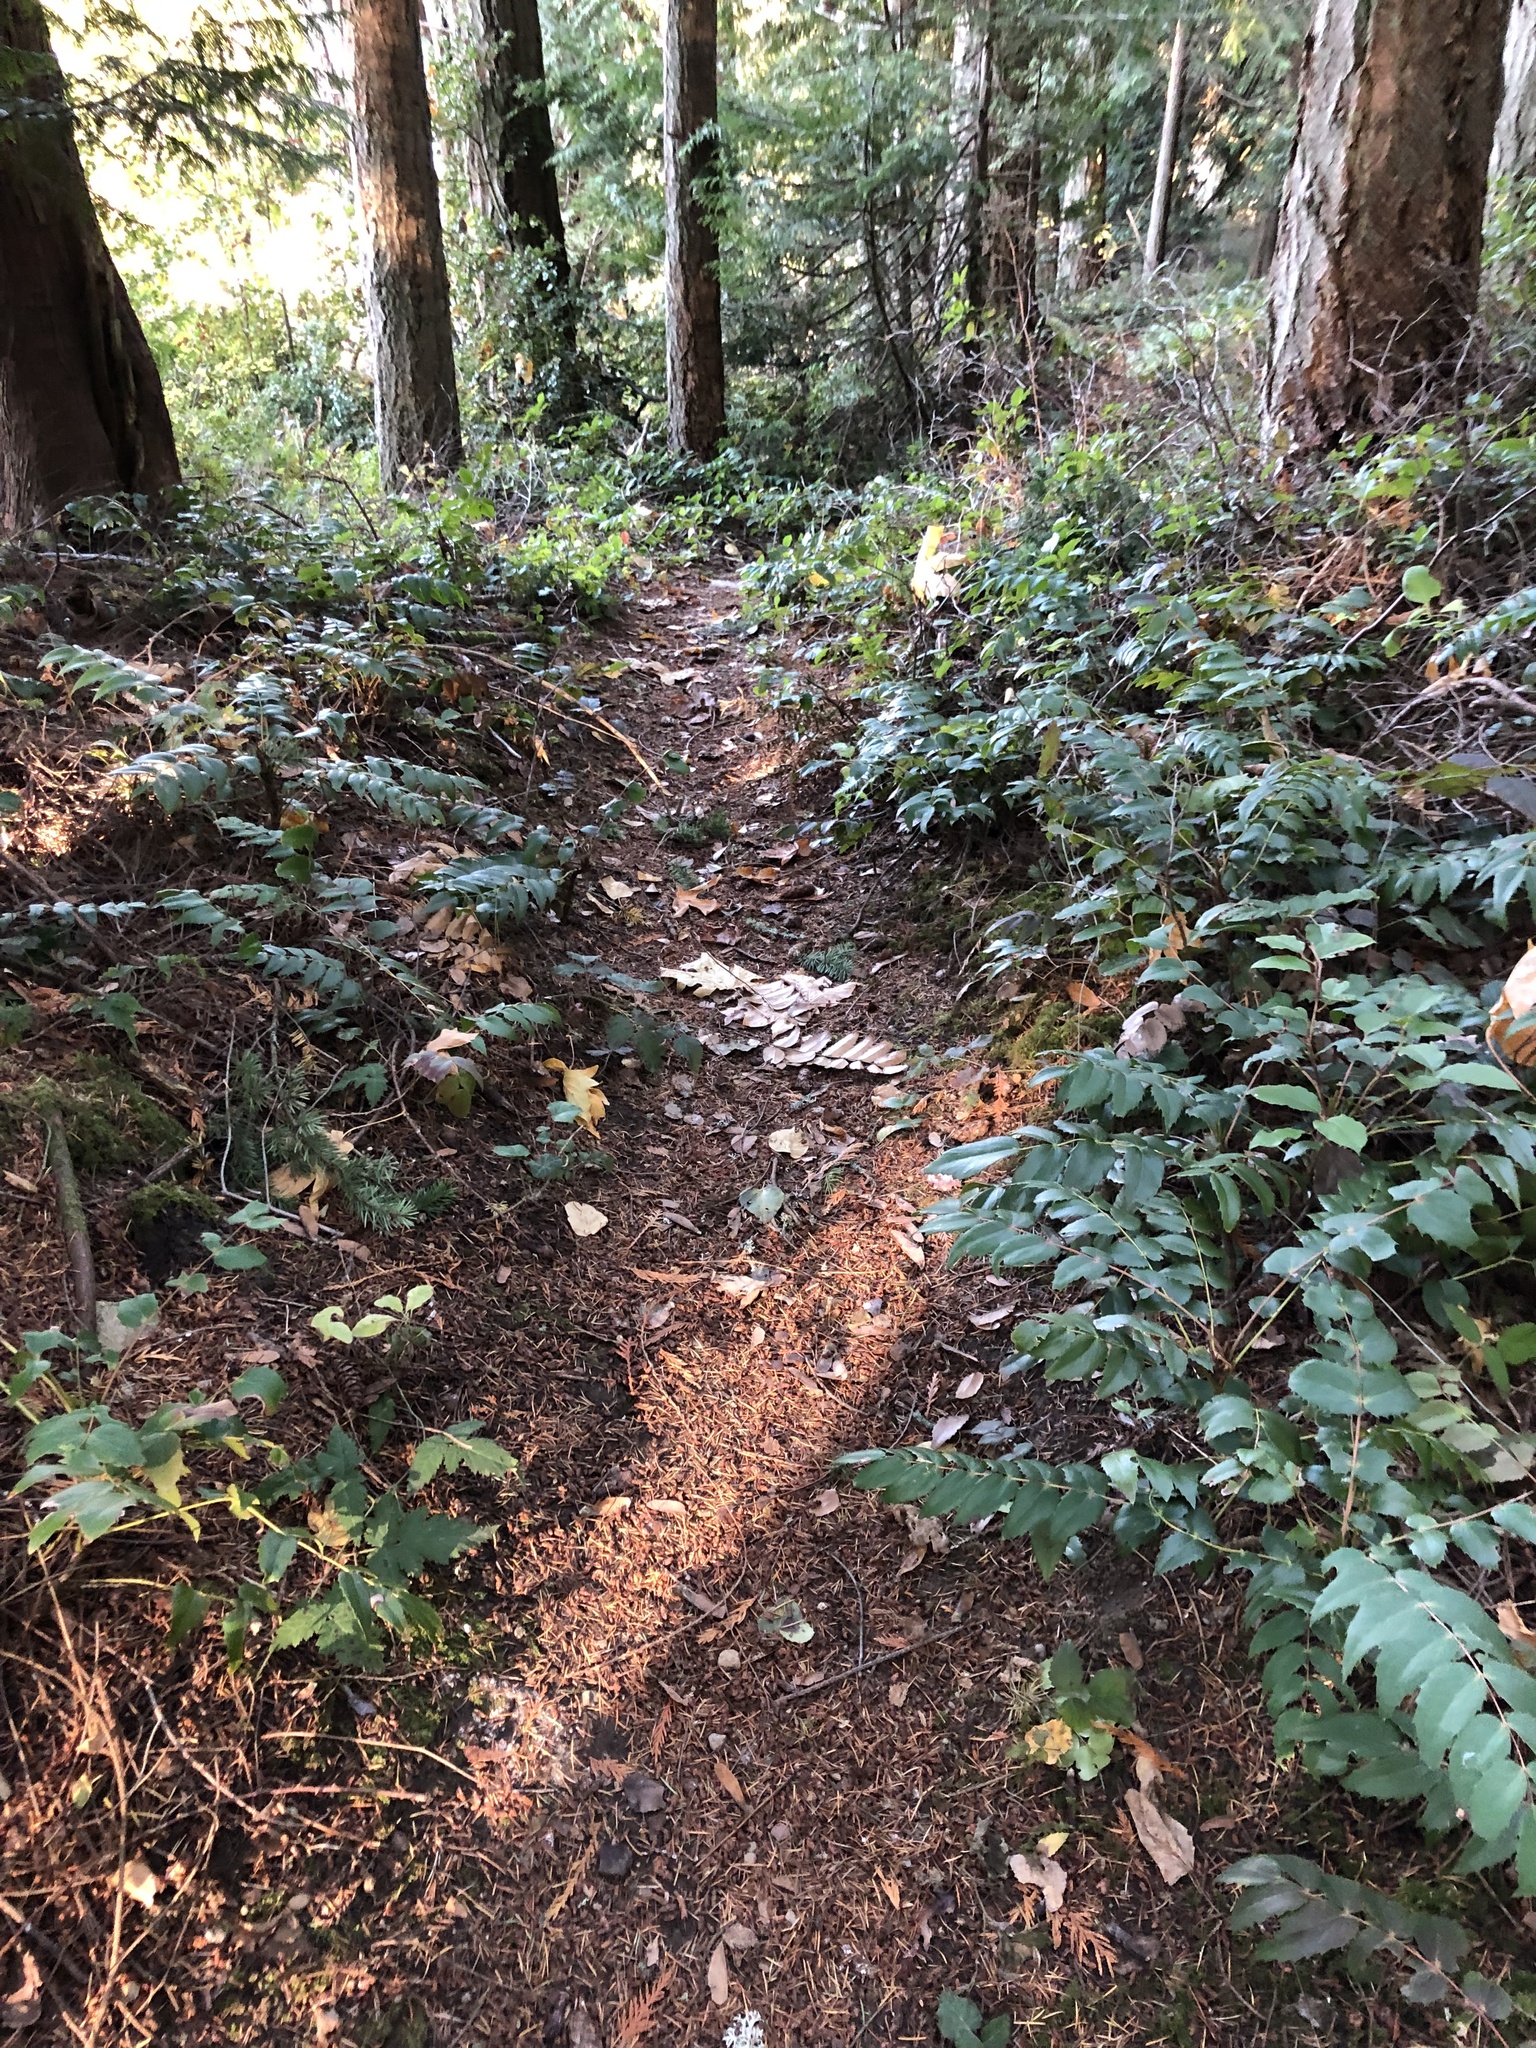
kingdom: Plantae
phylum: Tracheophyta
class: Magnoliopsida
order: Ranunculales
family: Berberidaceae
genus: Mahonia
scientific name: Mahonia nervosa
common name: Cascade oregon-grape
